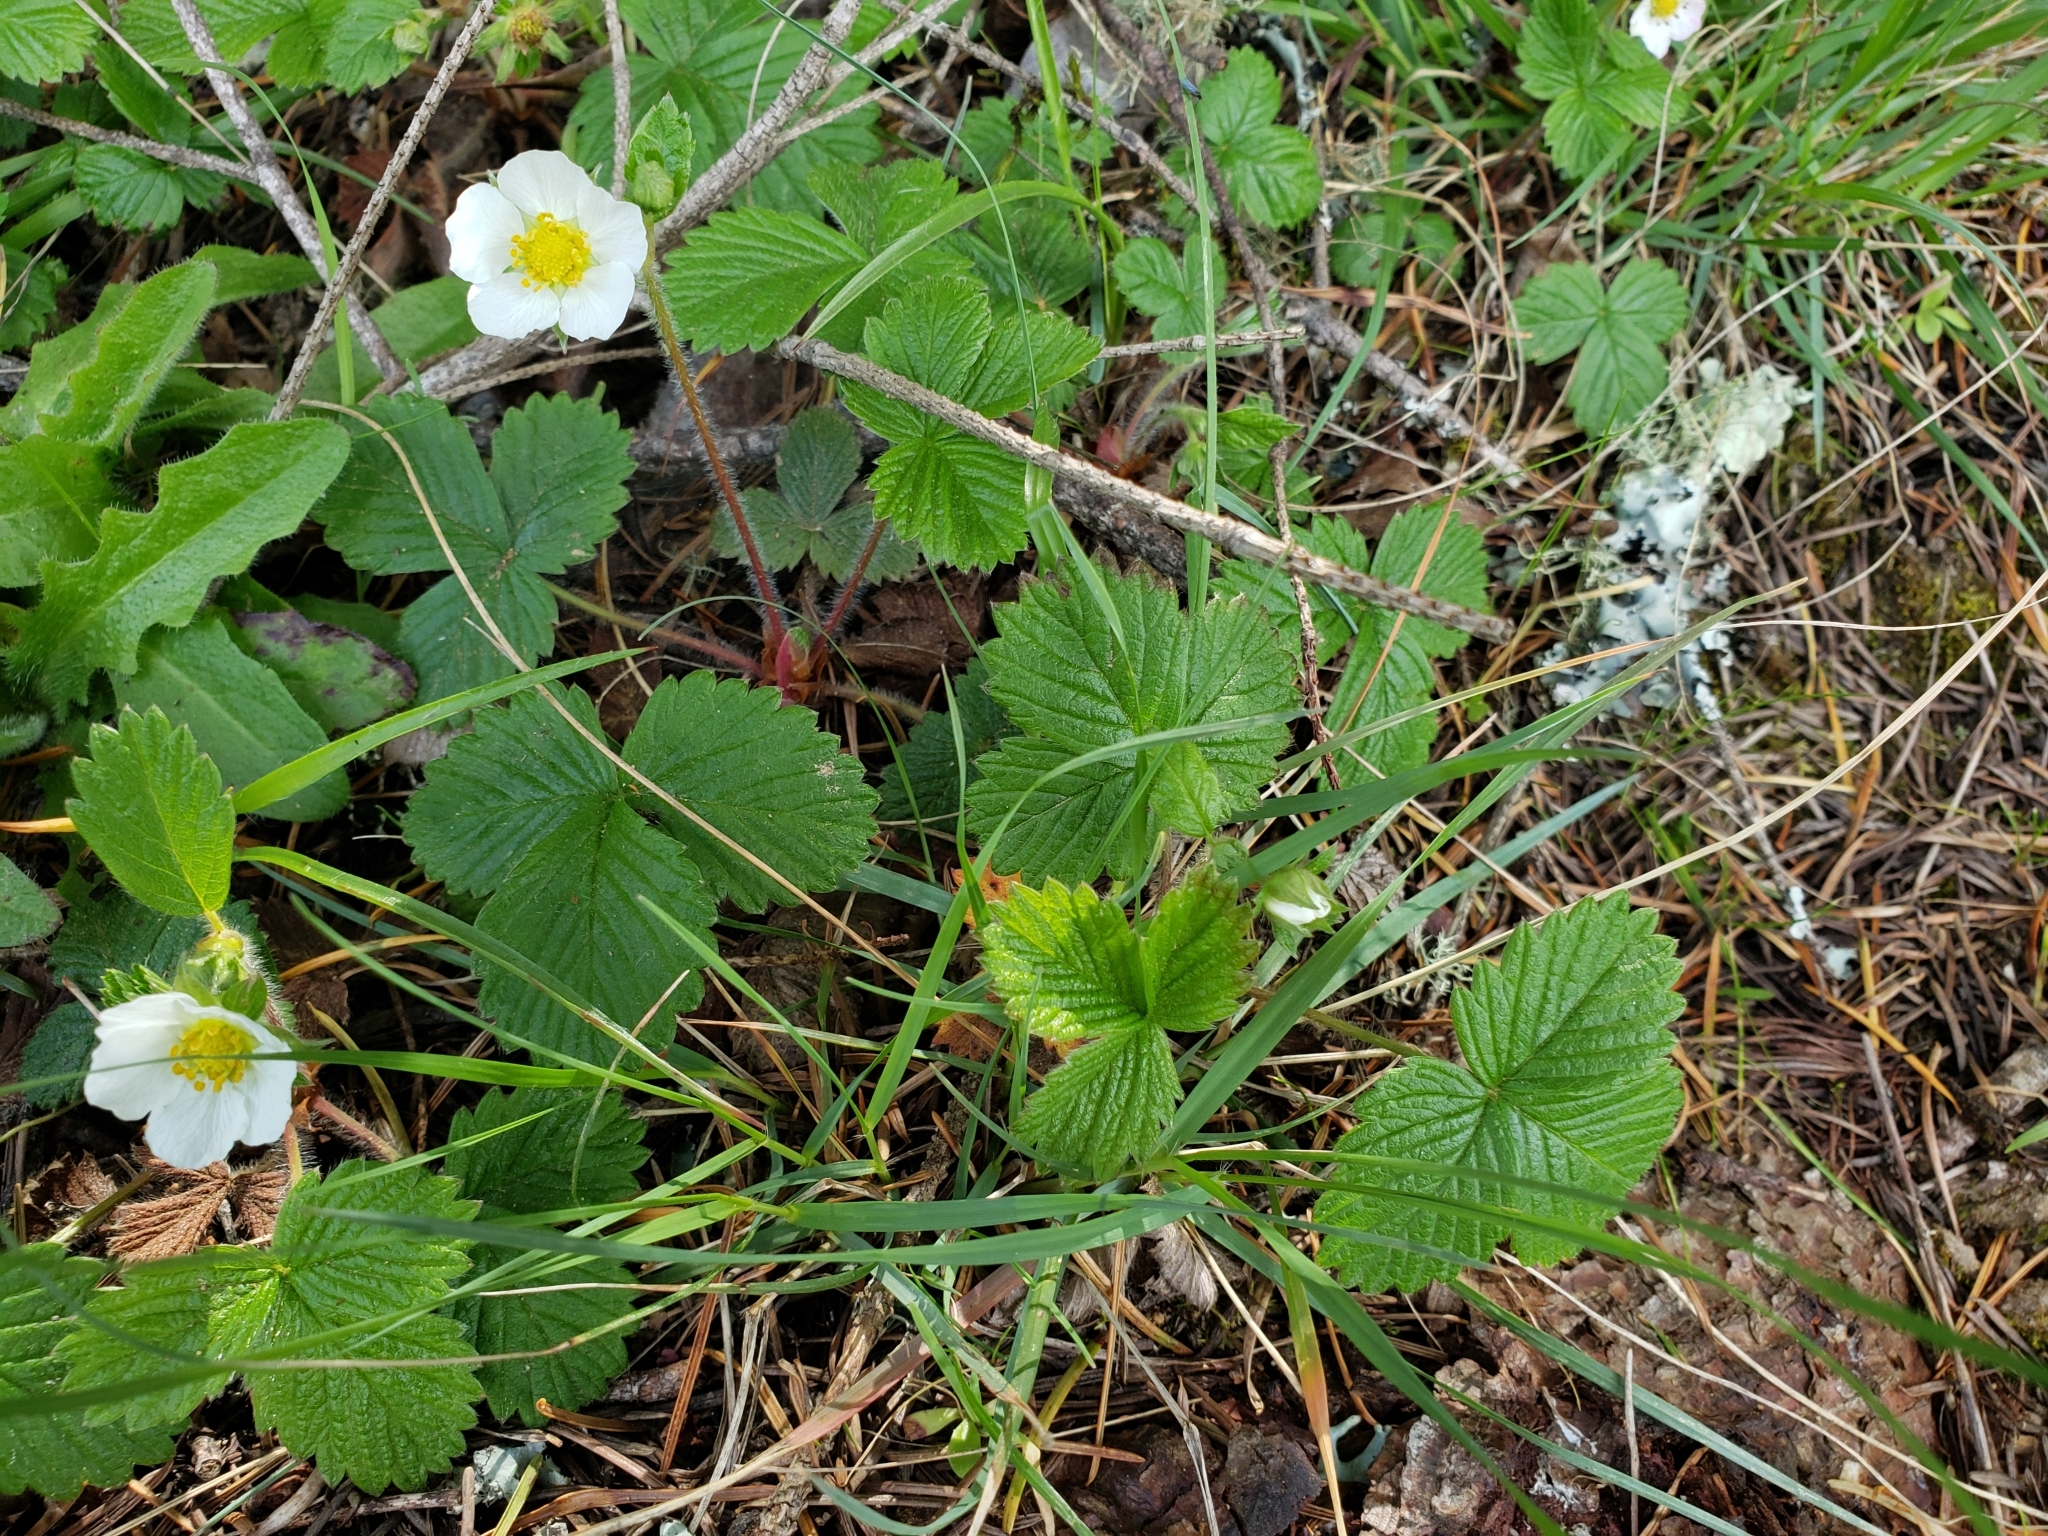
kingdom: Plantae
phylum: Tracheophyta
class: Magnoliopsida
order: Rosales
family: Rosaceae
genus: Fragaria
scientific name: Fragaria vesca
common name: Wild strawberry
